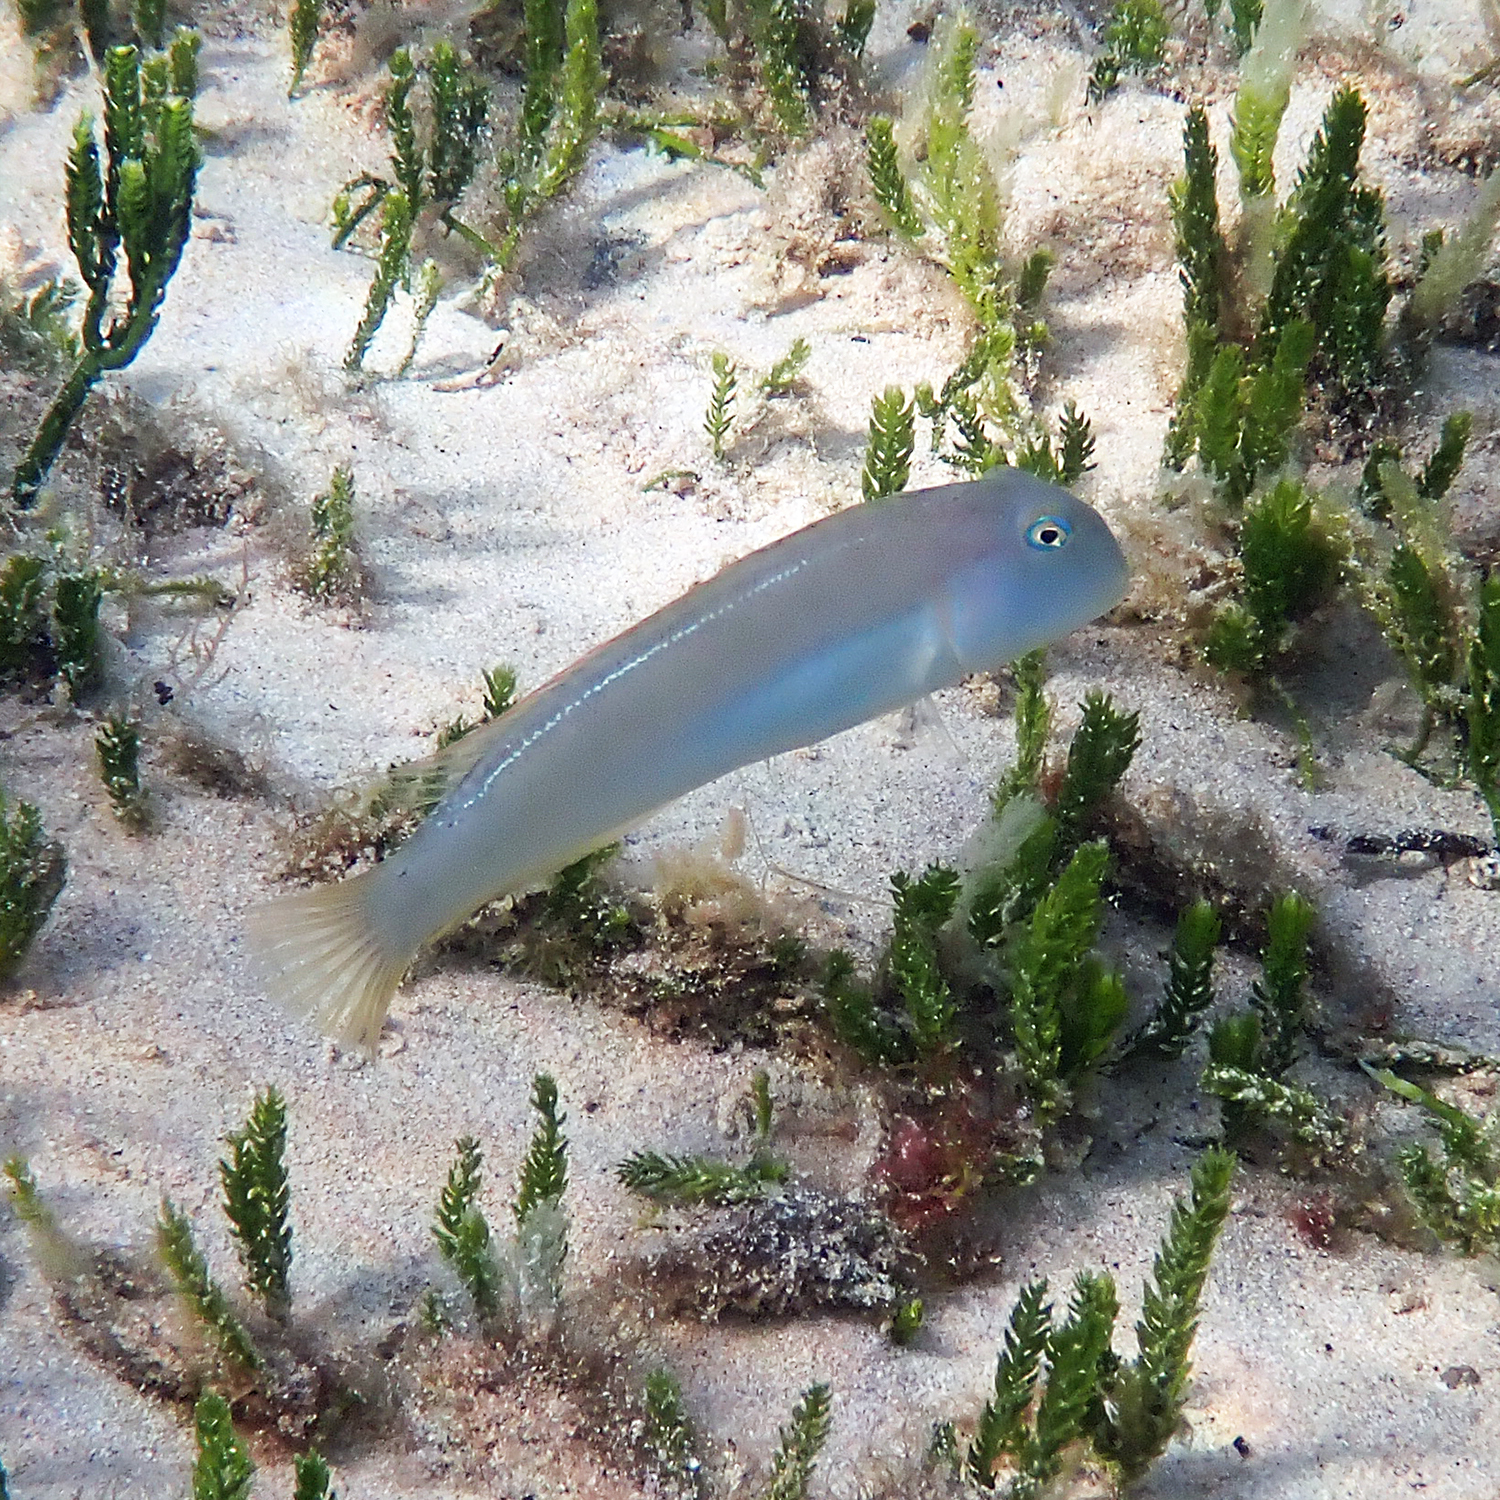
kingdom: Animalia
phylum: Chordata
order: Perciformes
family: Labridae
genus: Cymolutes
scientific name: Cymolutes praetextatus
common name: Knife razorfish
